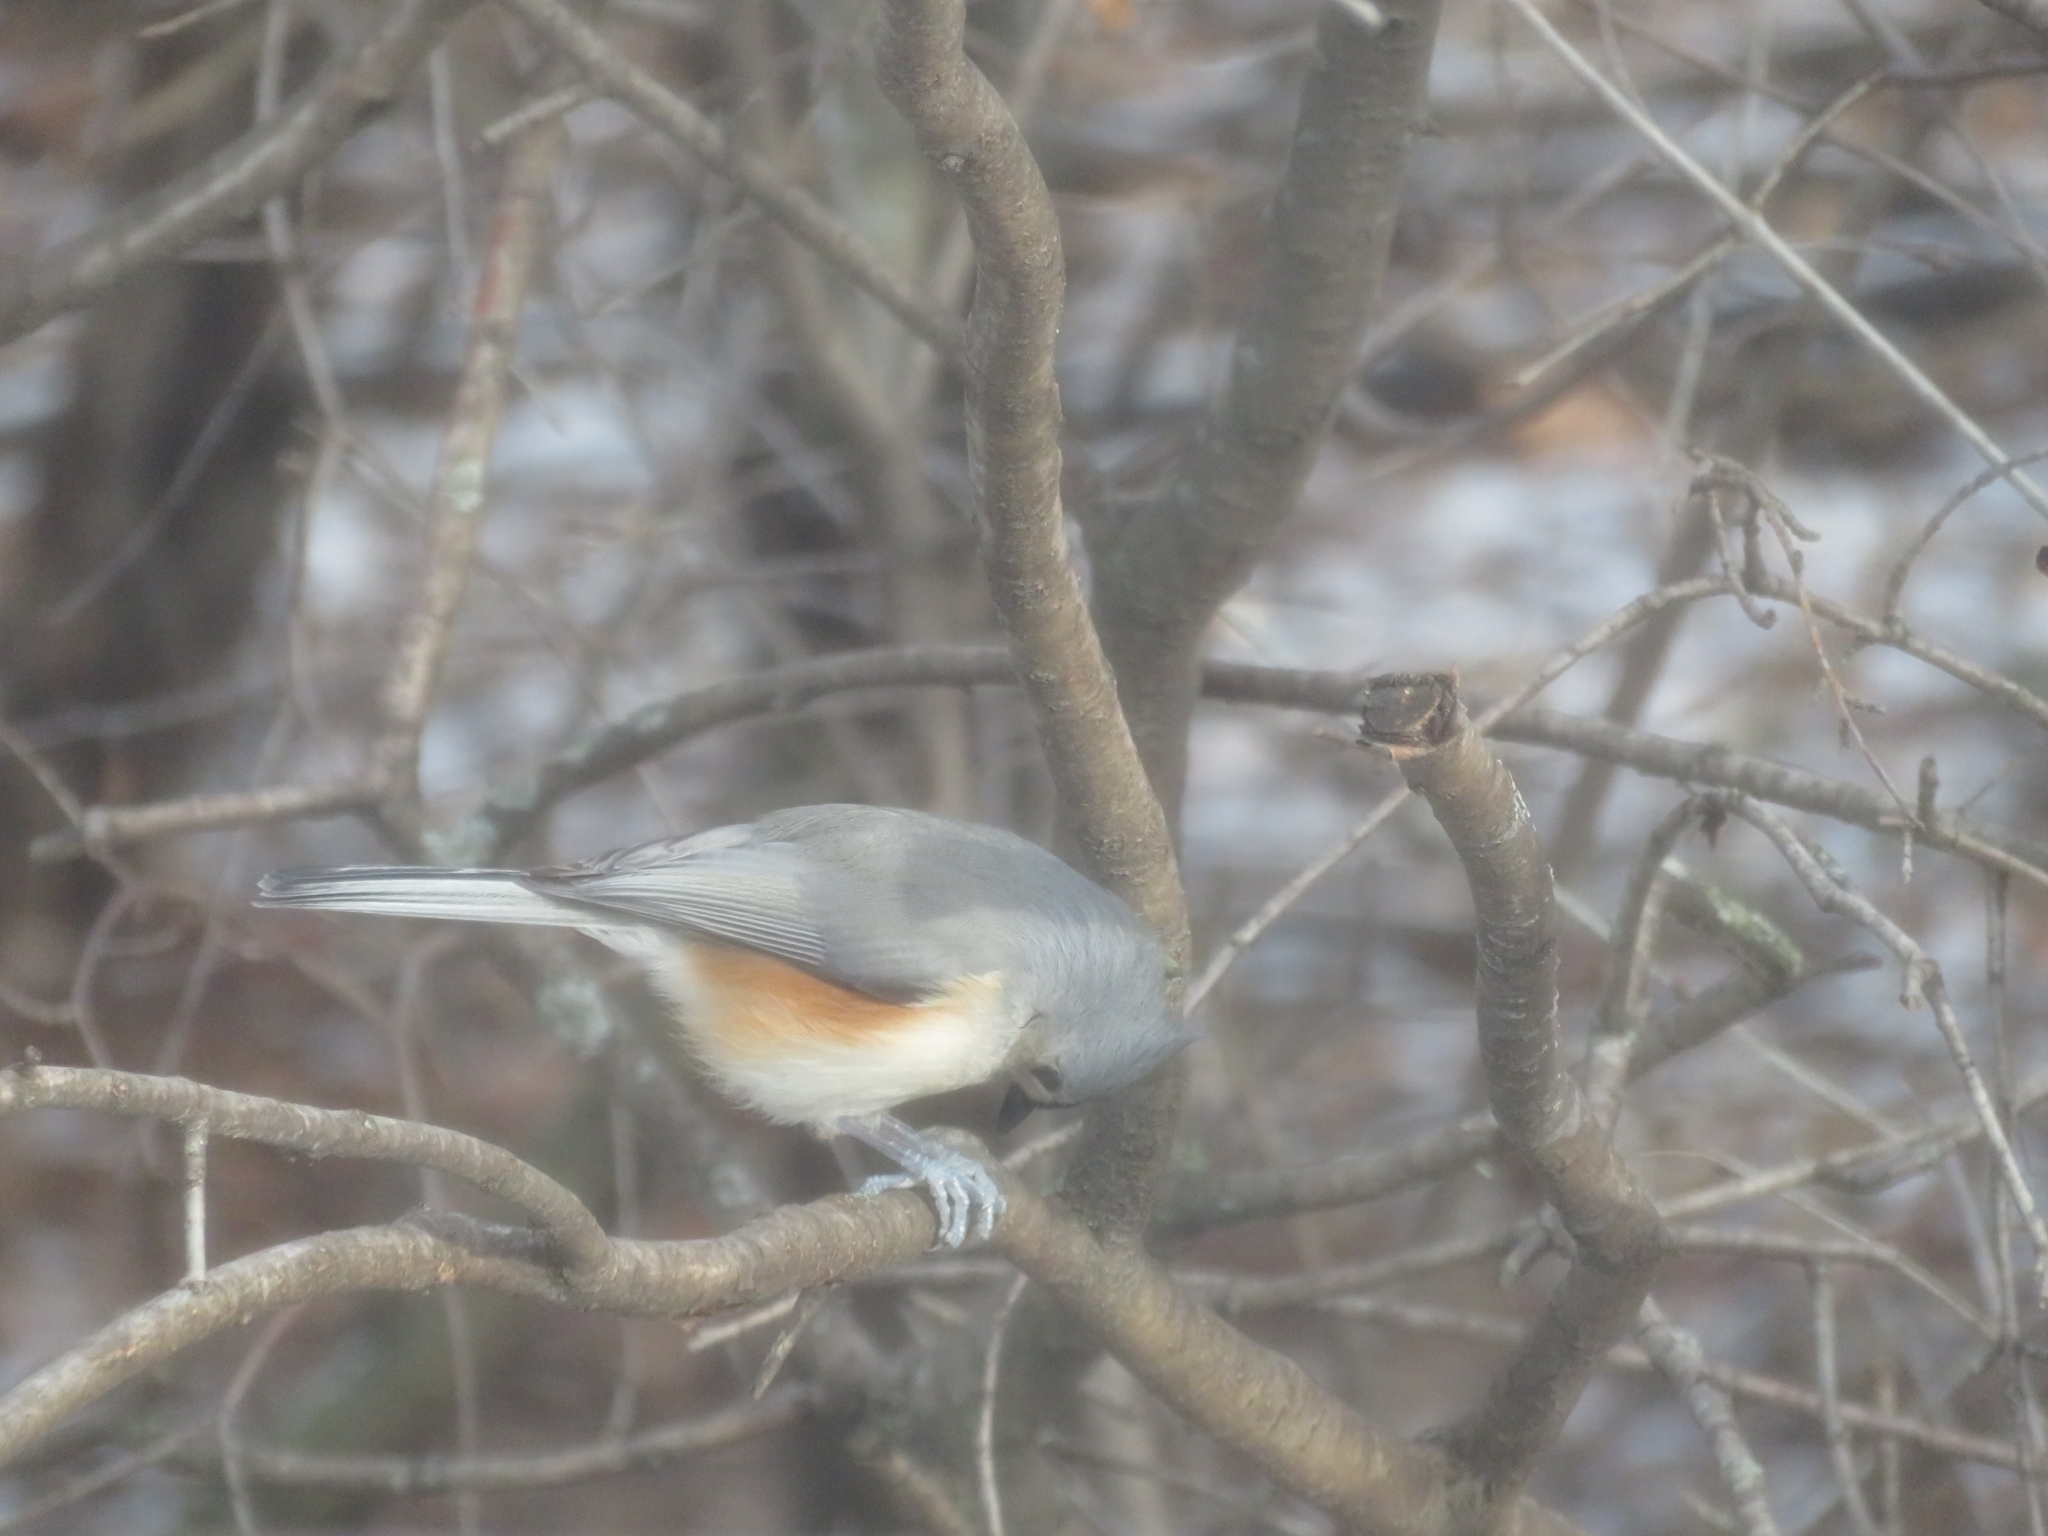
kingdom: Animalia
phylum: Chordata
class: Aves
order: Passeriformes
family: Paridae
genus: Baeolophus
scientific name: Baeolophus bicolor
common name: Tufted titmouse
